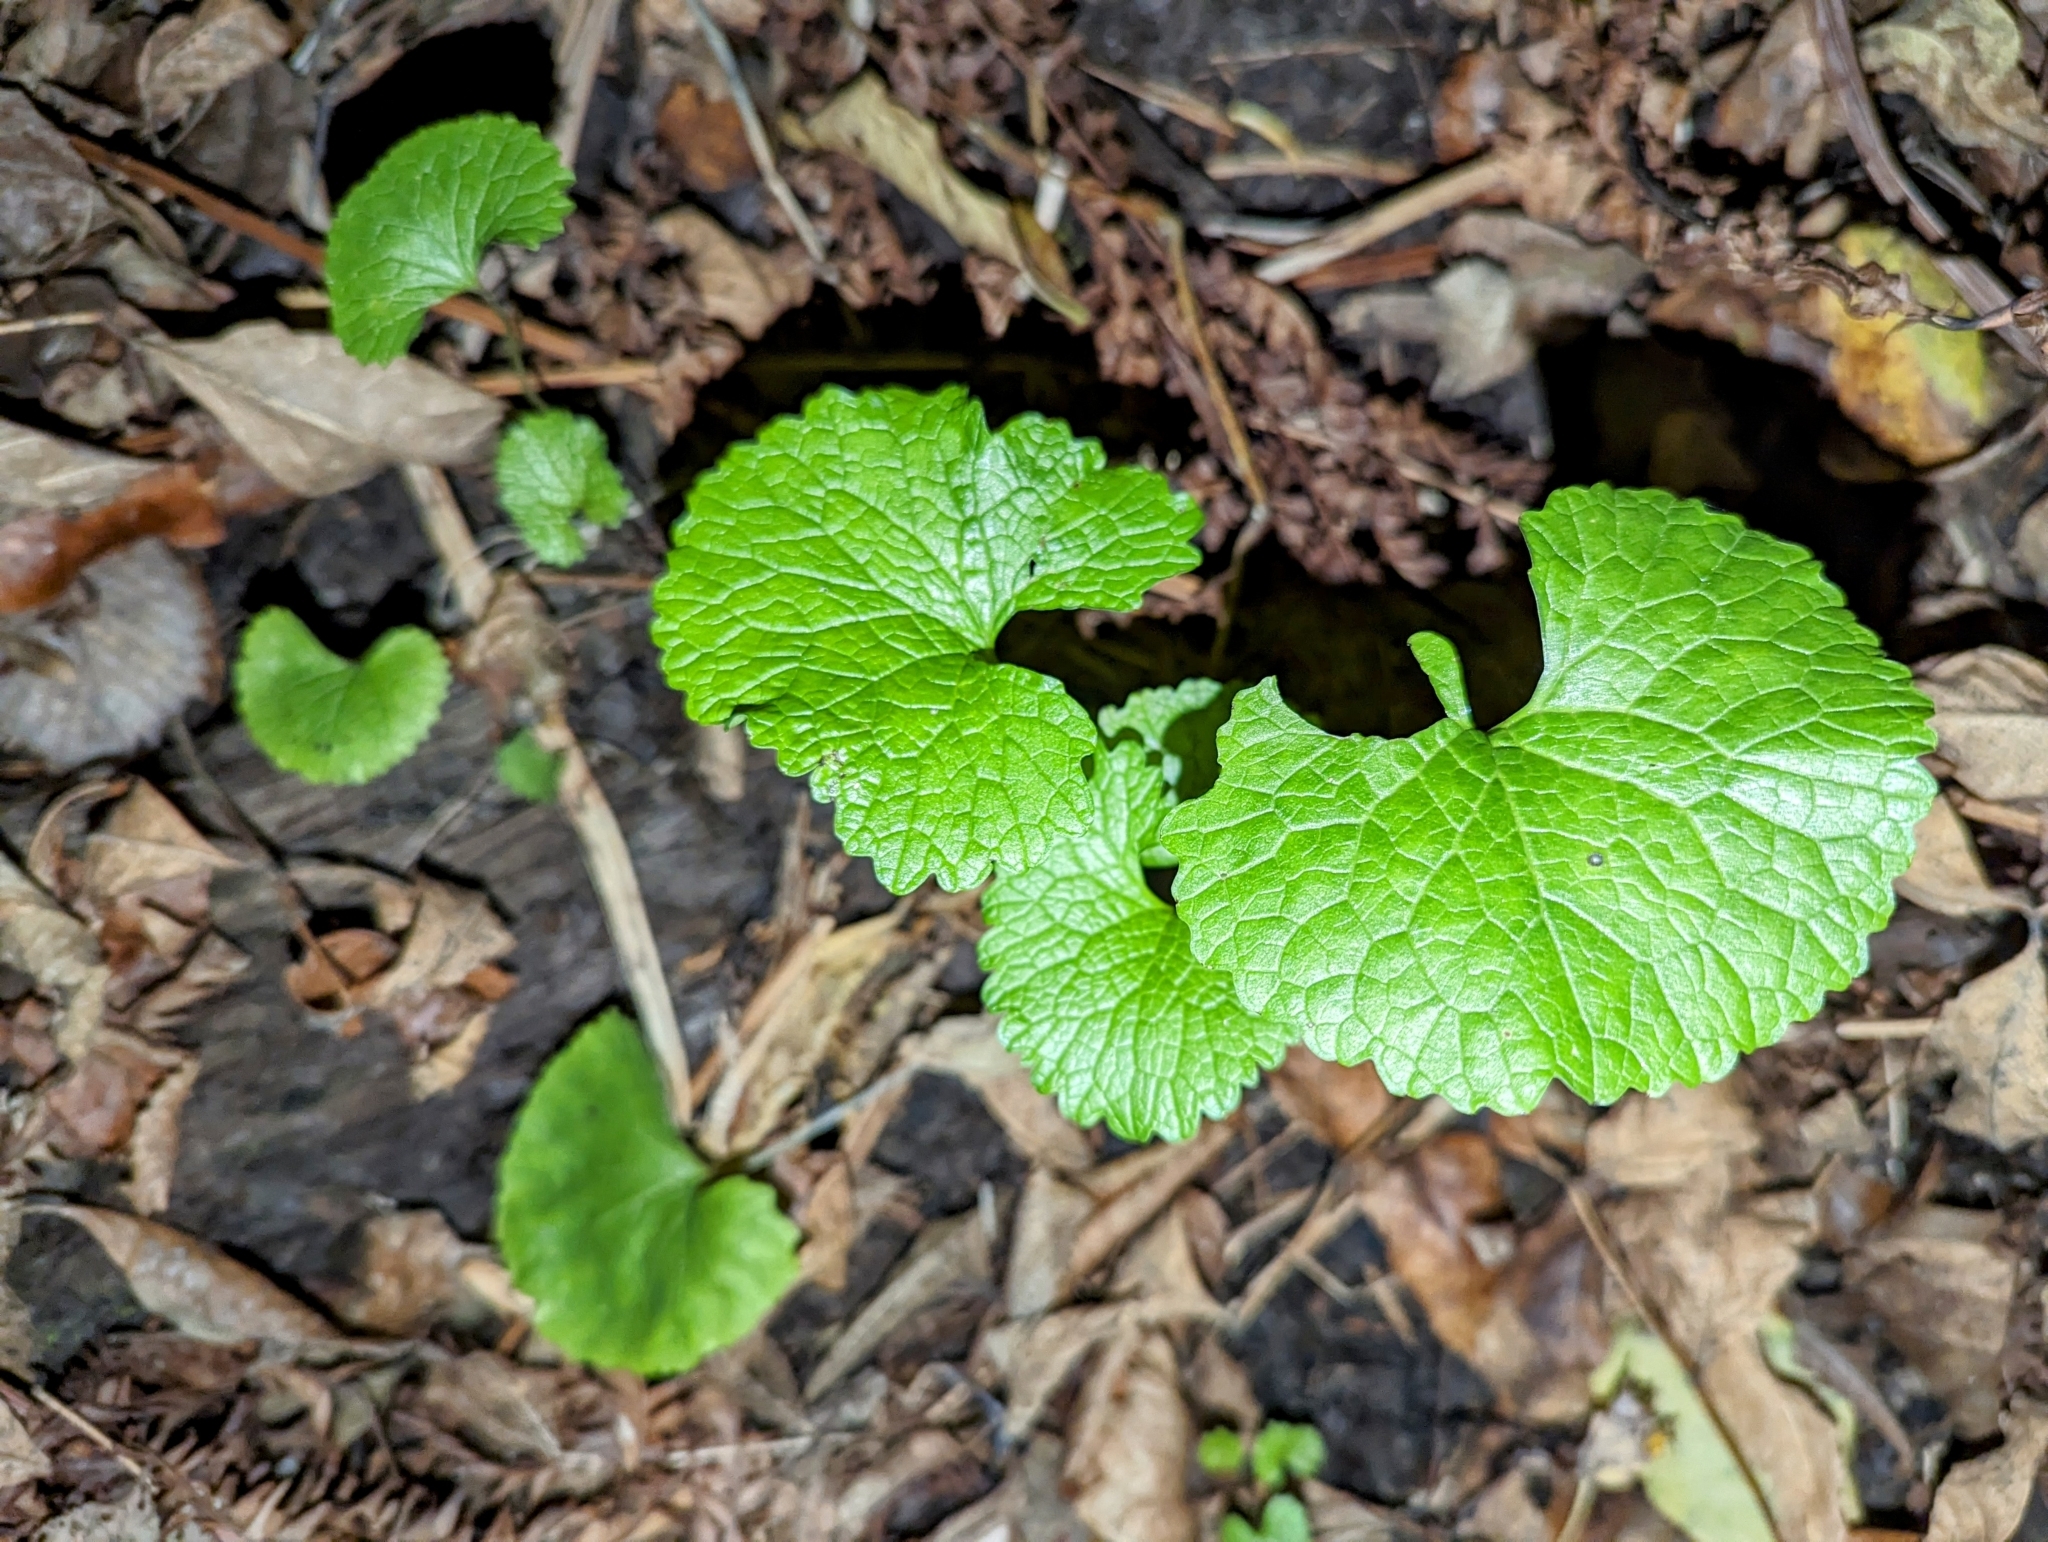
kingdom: Plantae
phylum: Tracheophyta
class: Magnoliopsida
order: Brassicales
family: Brassicaceae
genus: Alliaria
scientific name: Alliaria petiolata
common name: Garlic mustard
